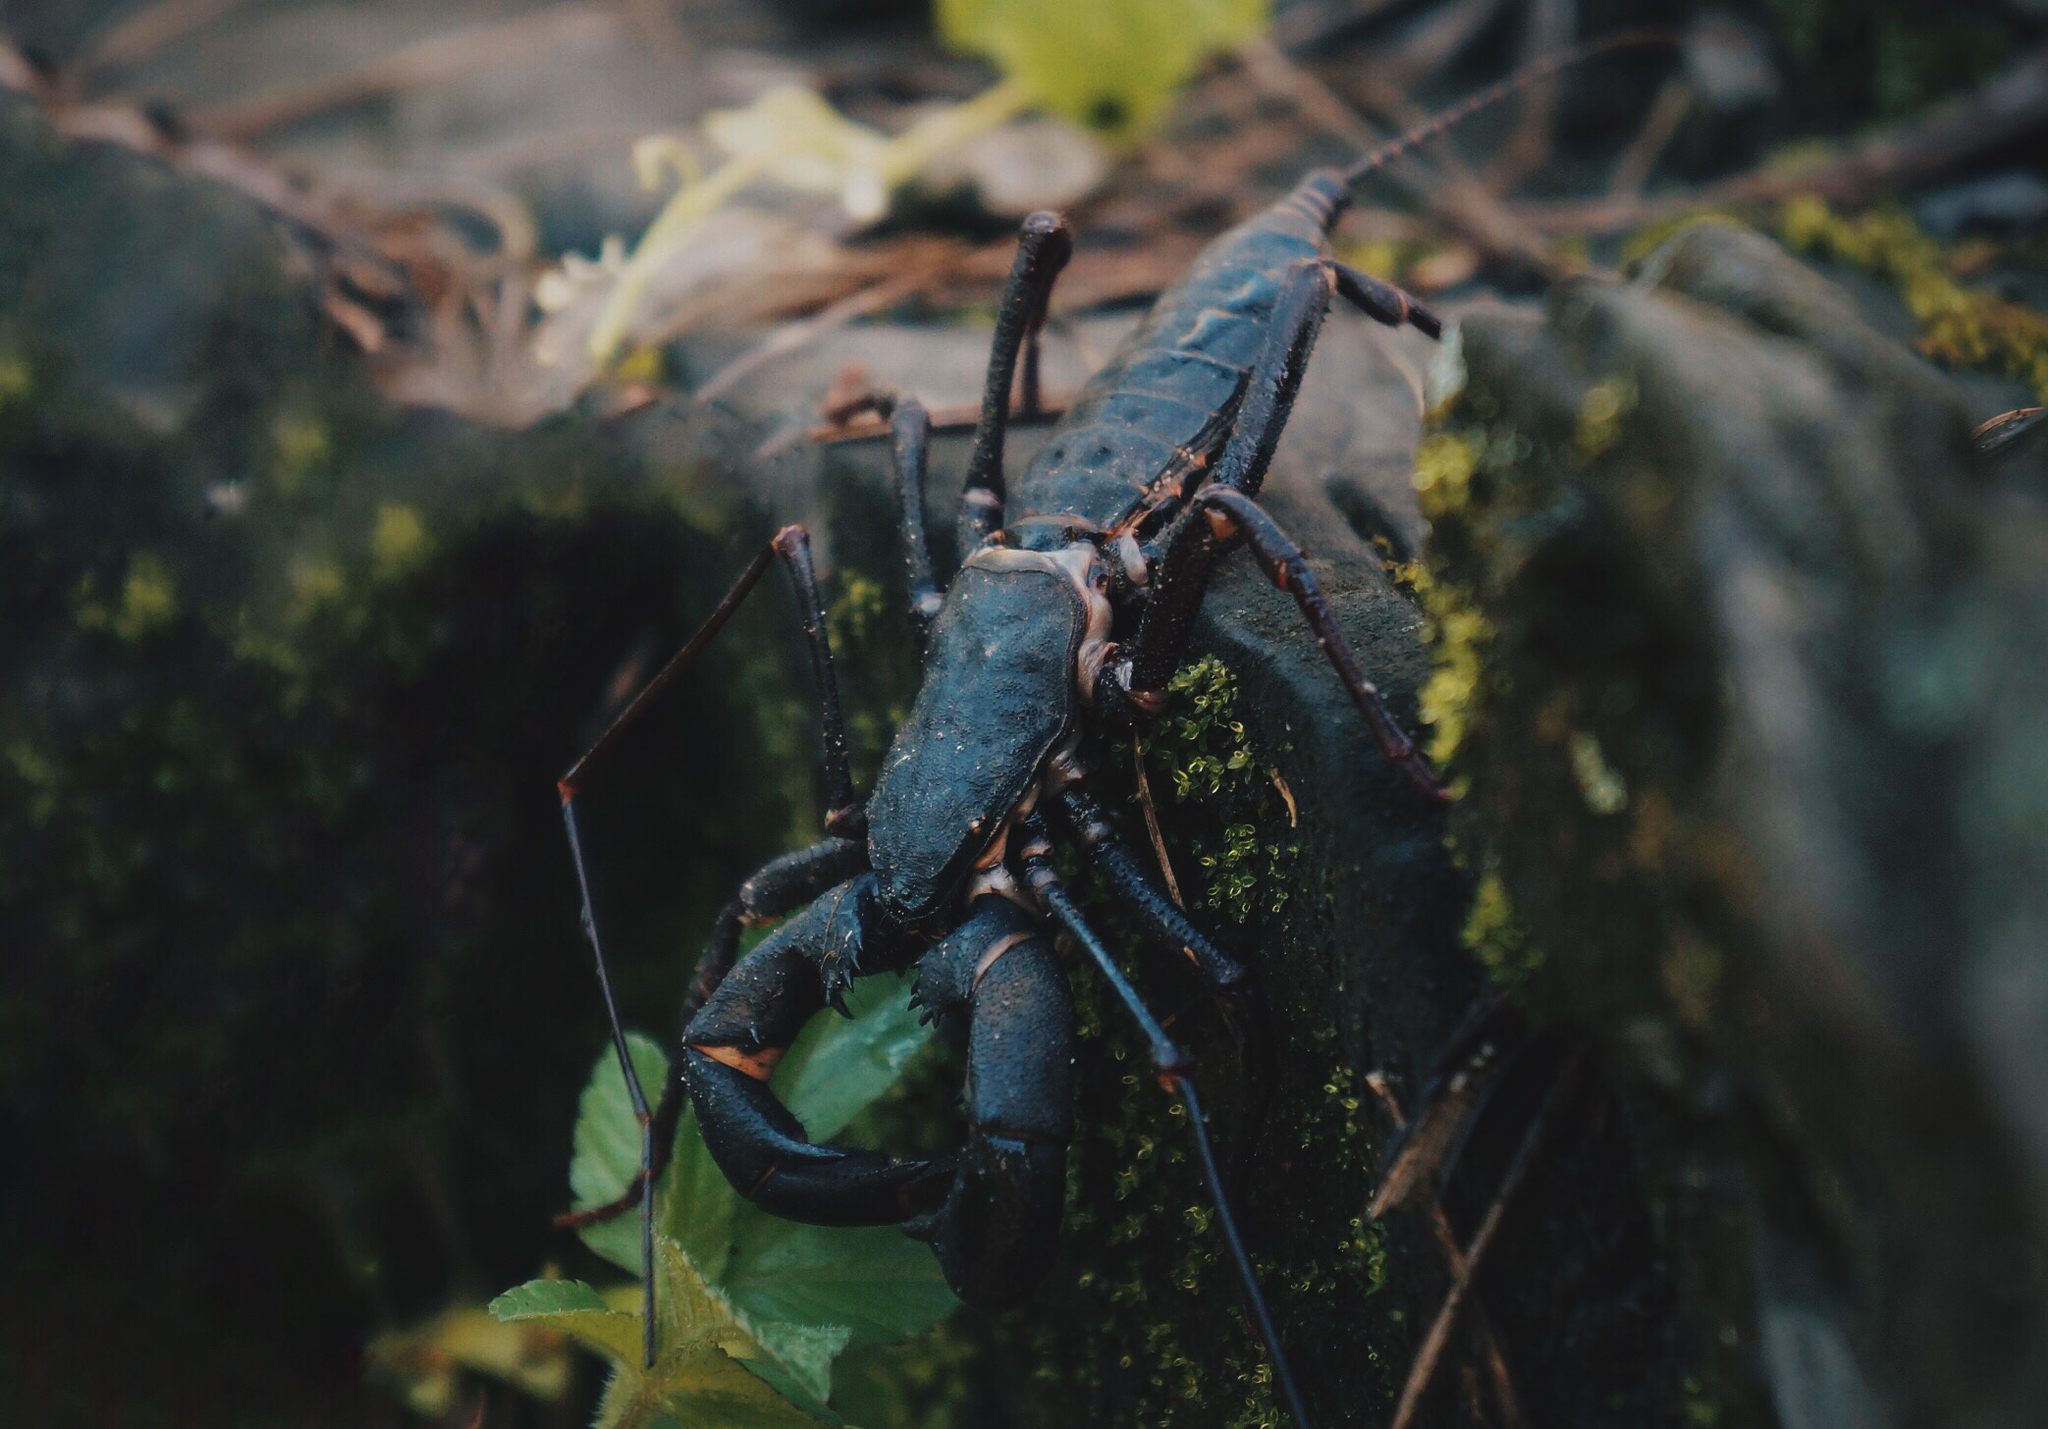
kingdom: Animalia
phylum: Arthropoda
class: Arachnida
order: Uropygi
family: Thelyphonidae
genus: Mastigoproctus
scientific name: Mastigoproctus cinteotl
